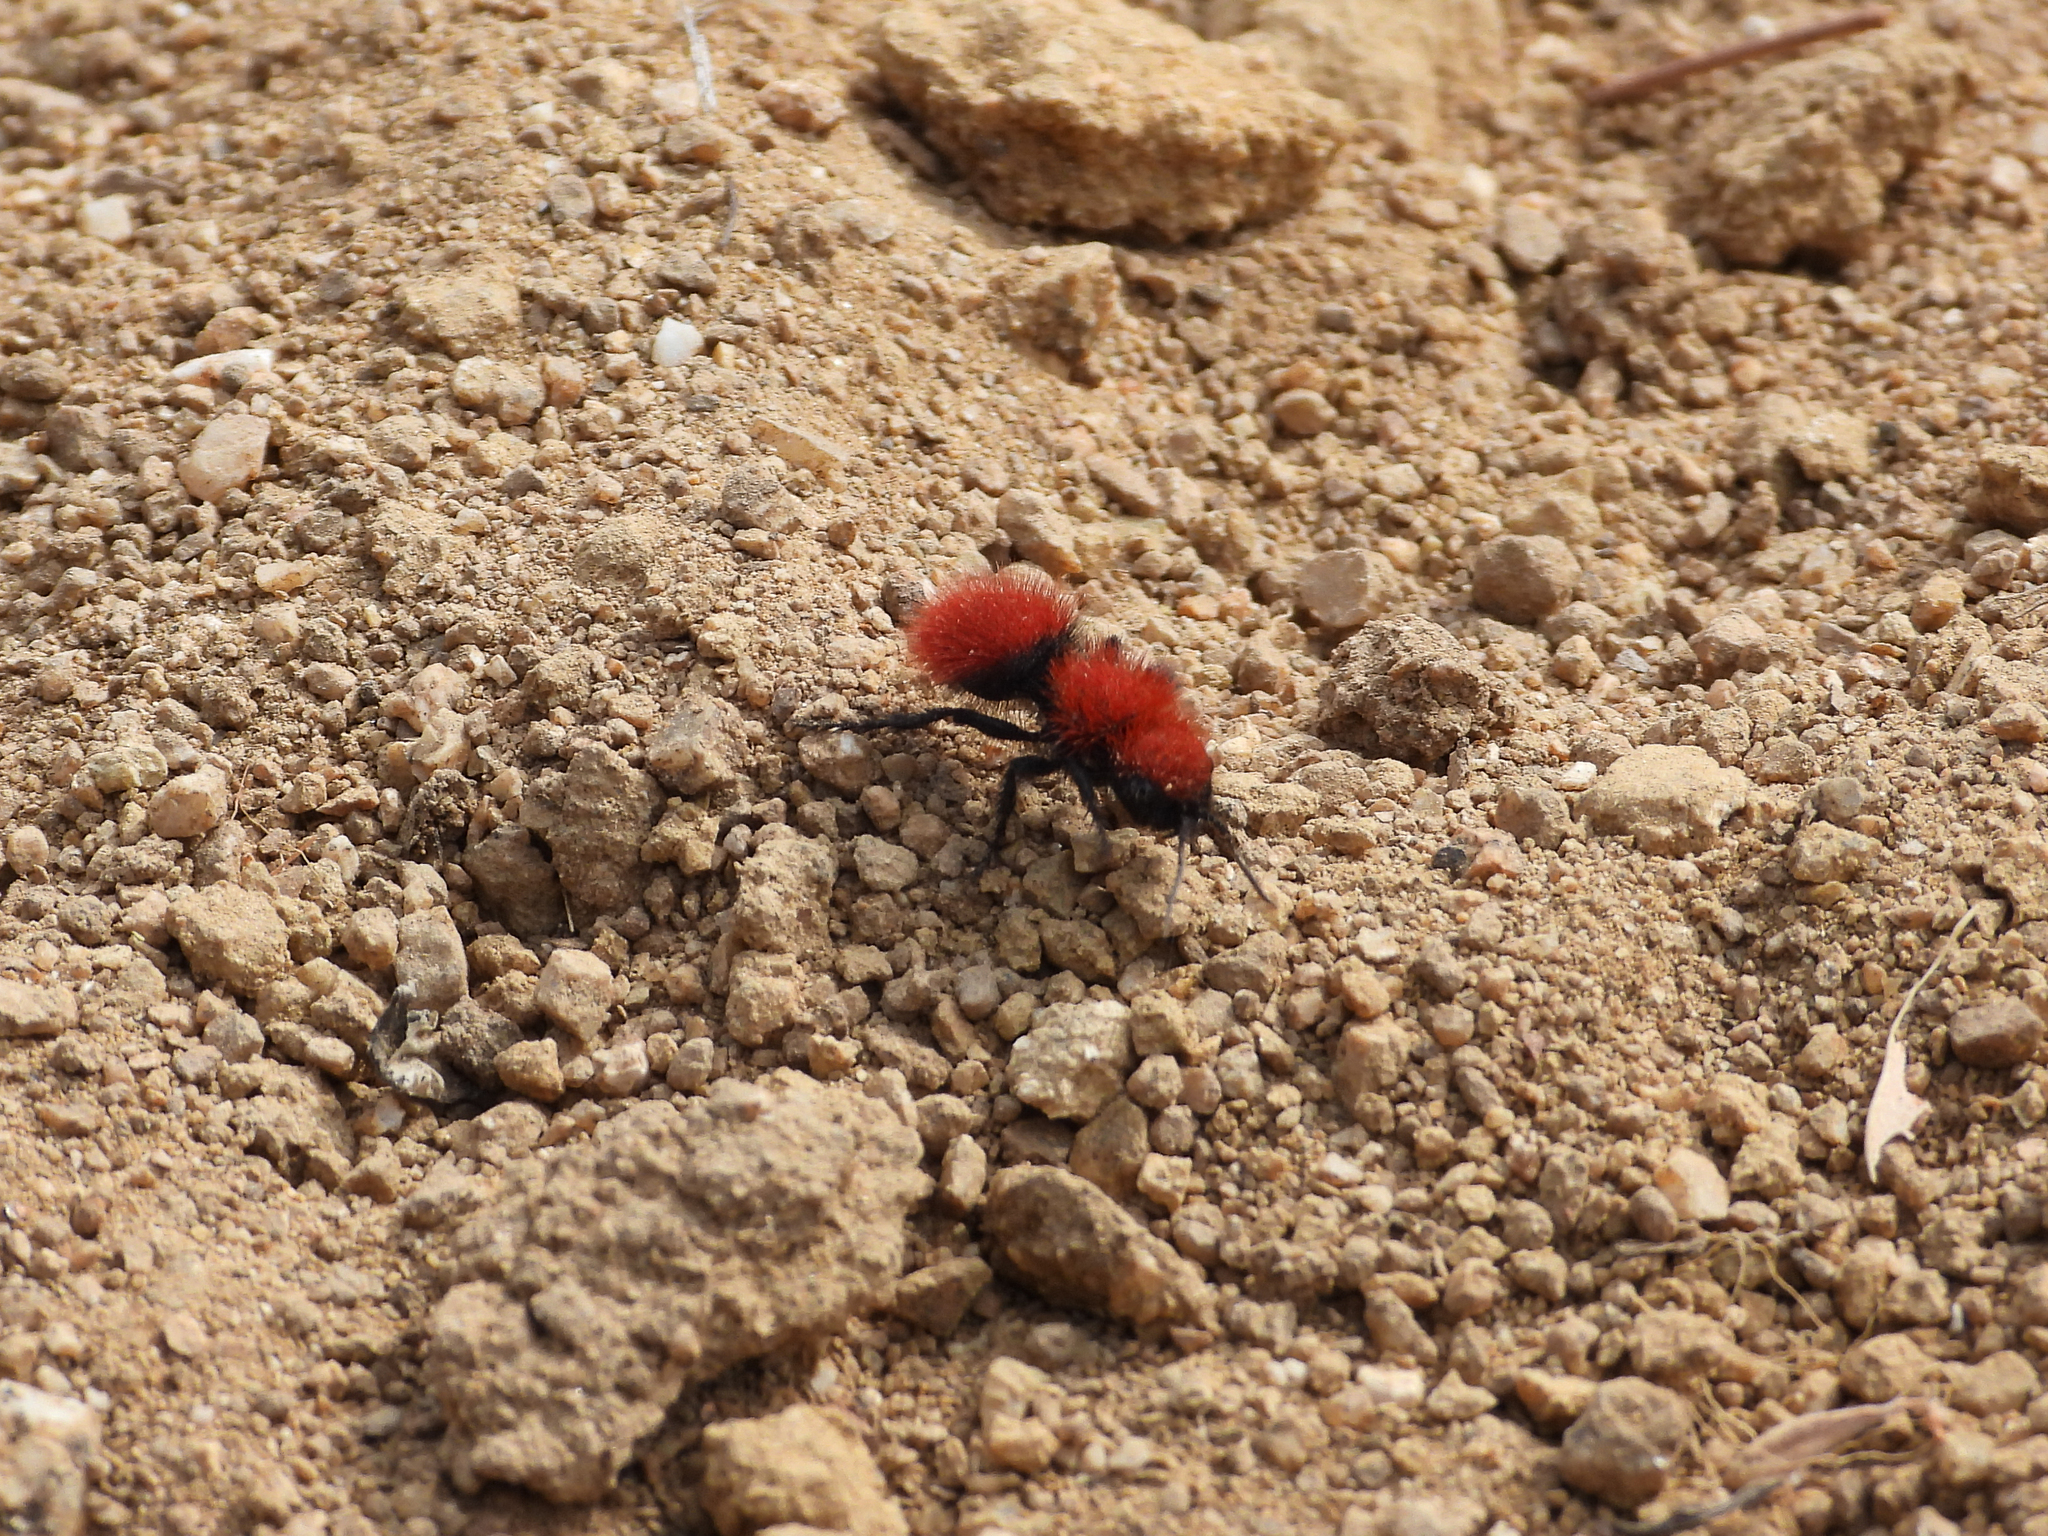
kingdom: Animalia
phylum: Arthropoda
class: Insecta
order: Hymenoptera
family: Mutillidae
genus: Dasymutilla
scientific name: Dasymutilla
